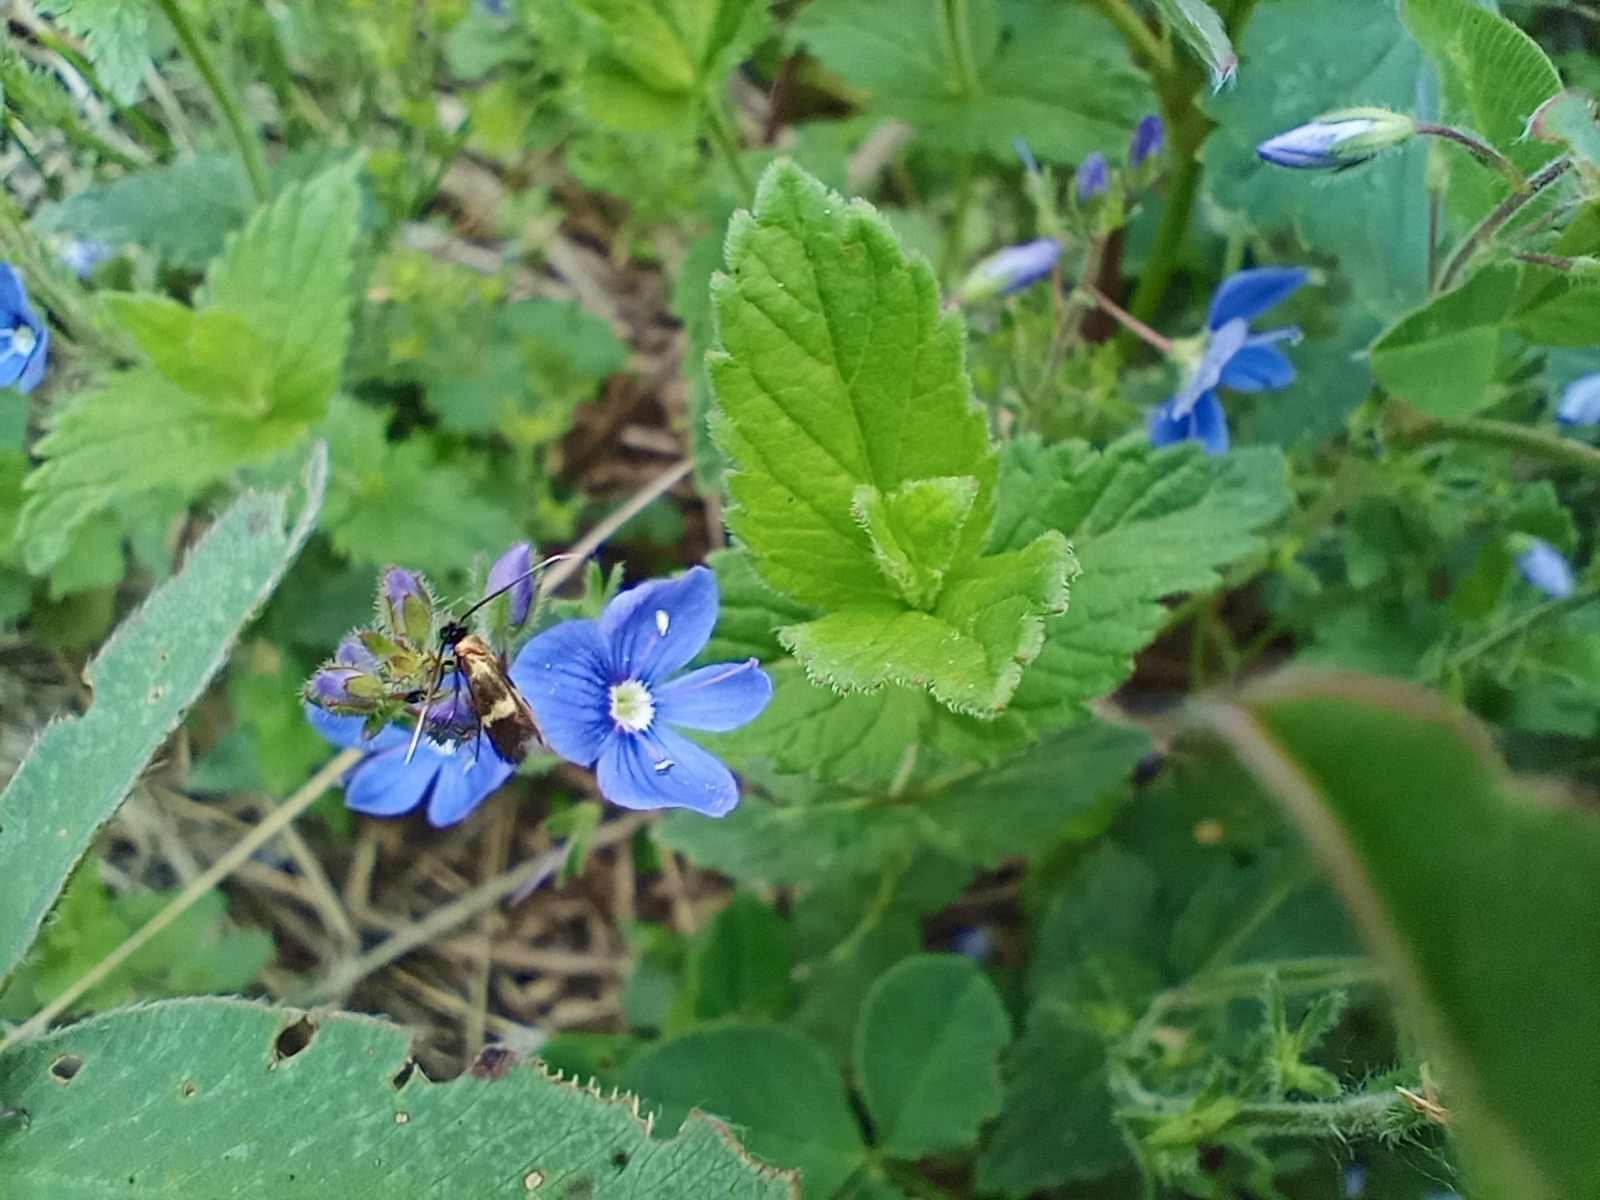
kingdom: Plantae
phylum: Tracheophyta
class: Magnoliopsida
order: Lamiales
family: Plantaginaceae
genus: Veronica
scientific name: Veronica chamaedrys
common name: Germander speedwell
